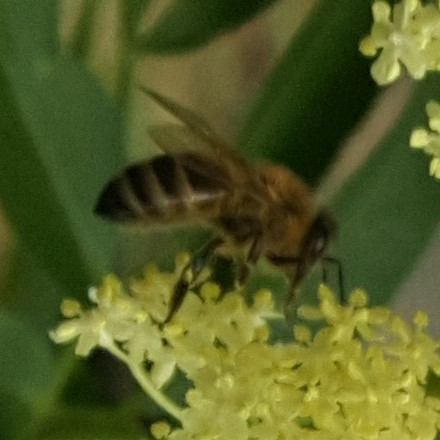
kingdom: Animalia
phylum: Arthropoda
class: Insecta
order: Hymenoptera
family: Apidae
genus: Apis
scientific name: Apis mellifera
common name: Honey bee
